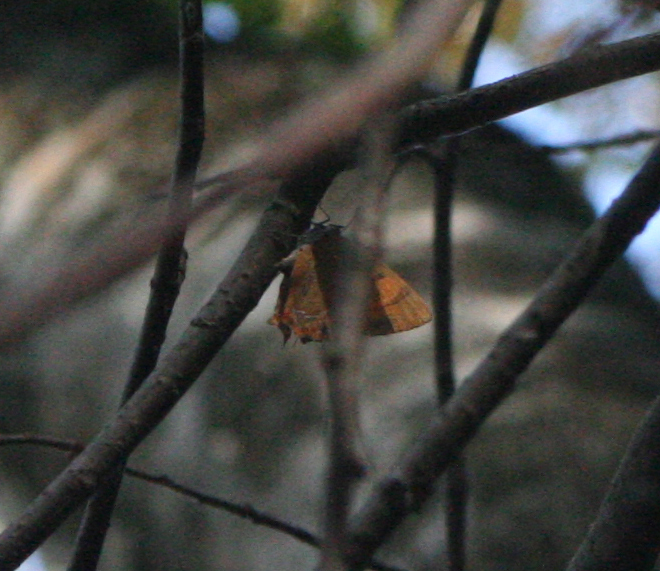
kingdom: Animalia
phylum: Arthropoda
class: Insecta
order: Lepidoptera
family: Lycaenidae
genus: Thecla
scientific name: Thecla betulae
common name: Brown hairstreak
